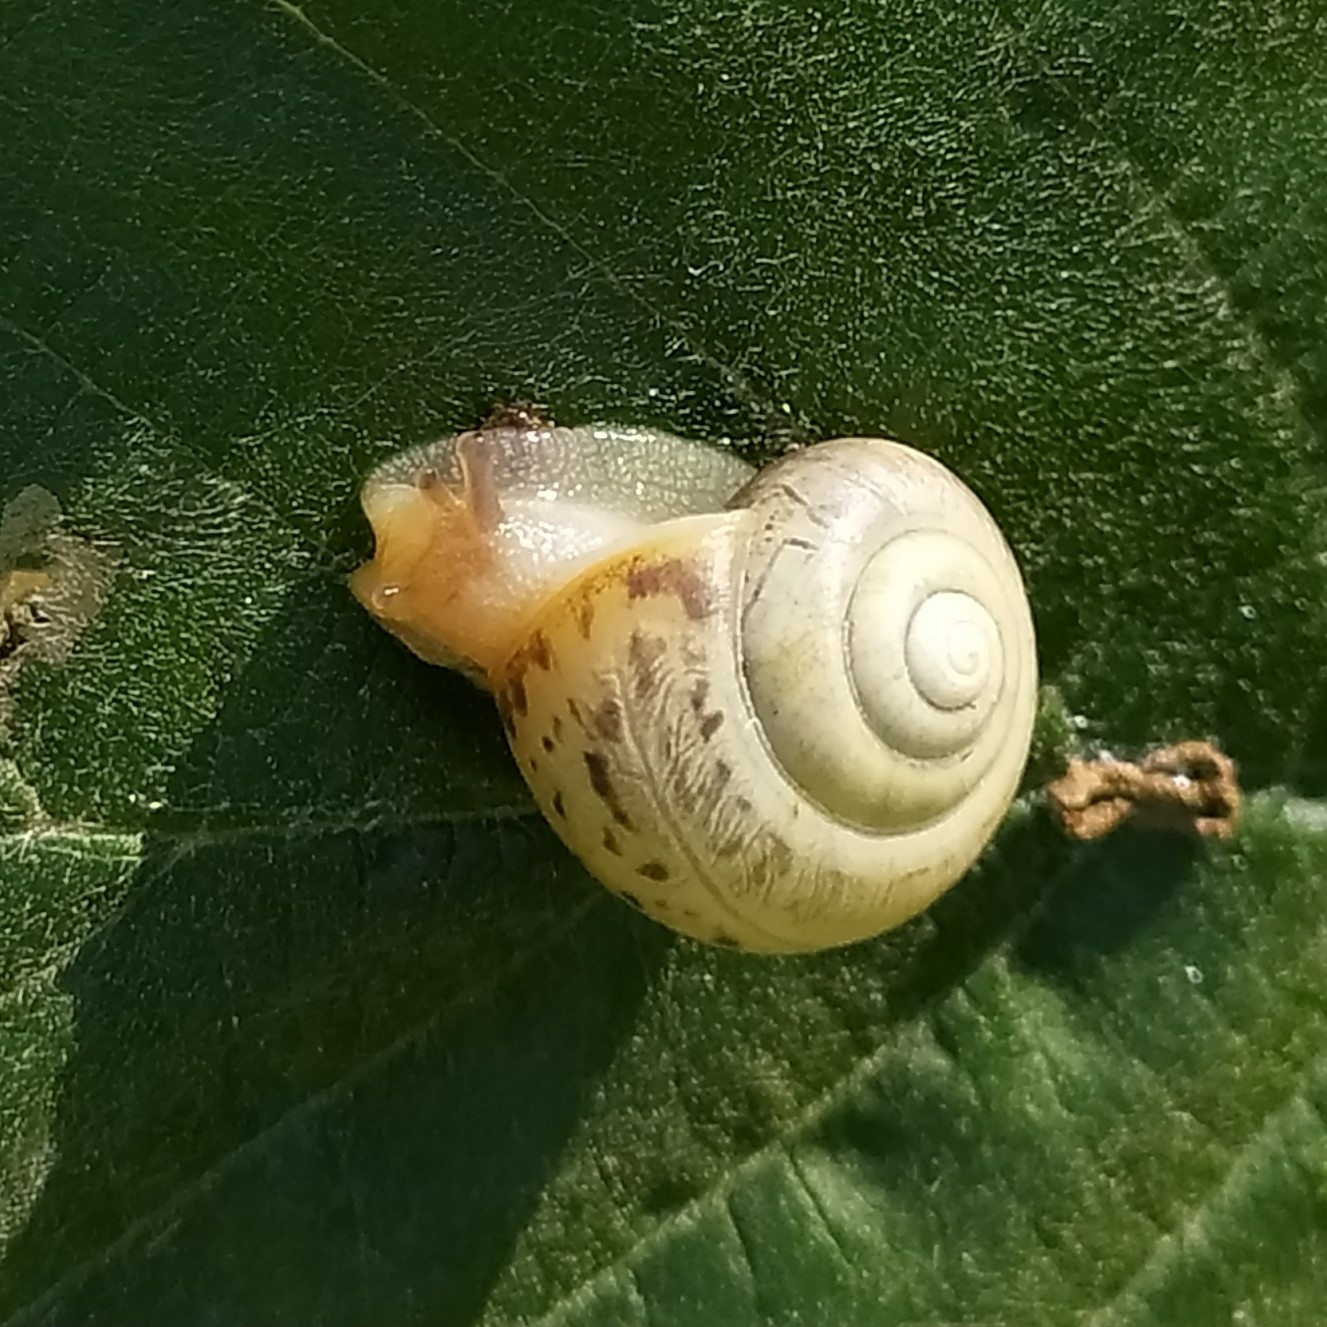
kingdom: Animalia
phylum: Mollusca
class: Gastropoda
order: Stylommatophora
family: Camaenidae
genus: Fruticicola
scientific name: Fruticicola fruticum
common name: Bush snail
